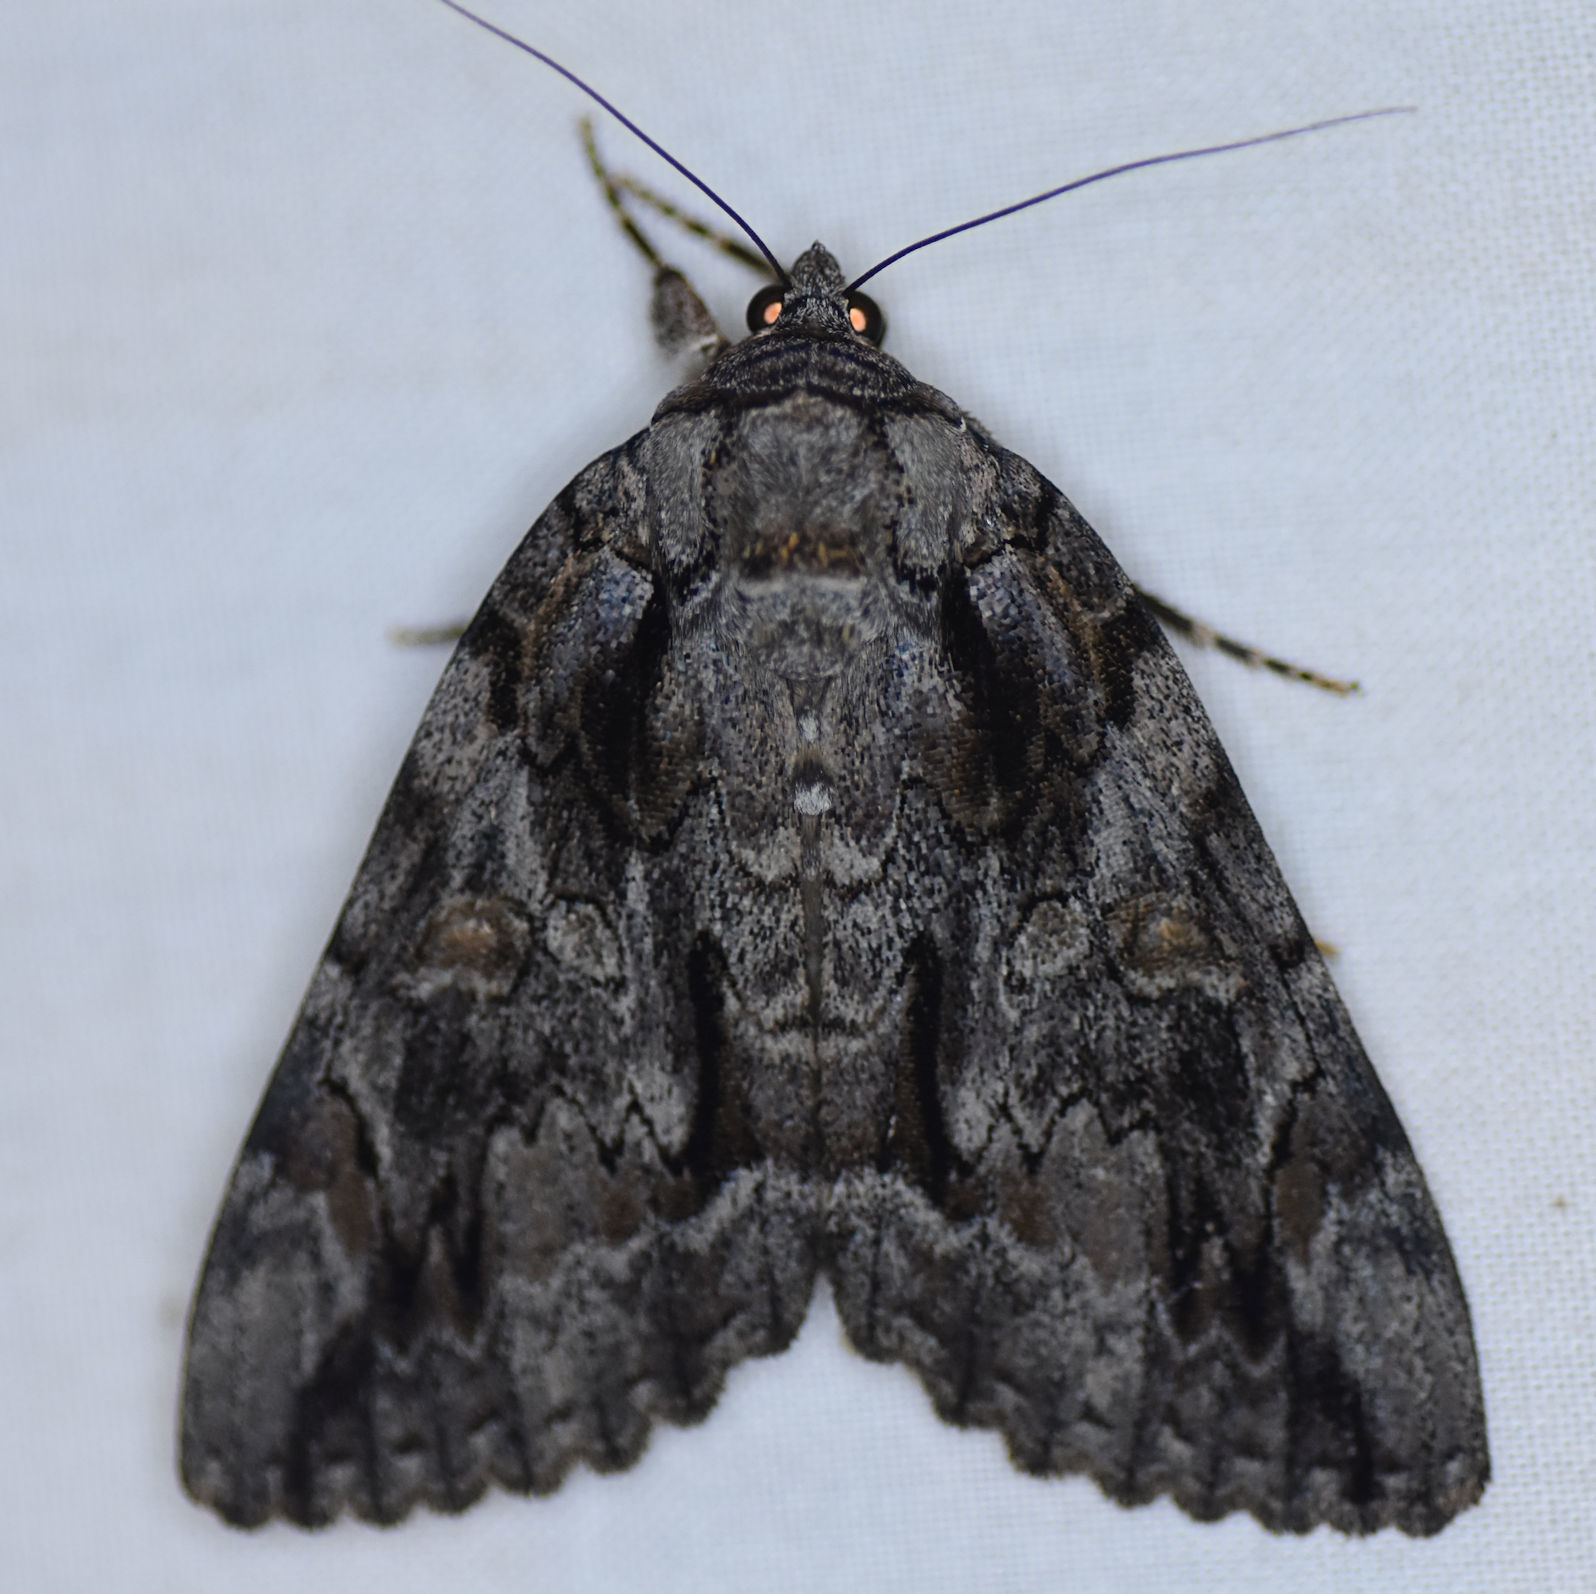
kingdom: Animalia
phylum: Arthropoda
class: Insecta
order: Lepidoptera
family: Erebidae
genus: Catocala
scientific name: Catocala neogama
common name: Bride underwing
